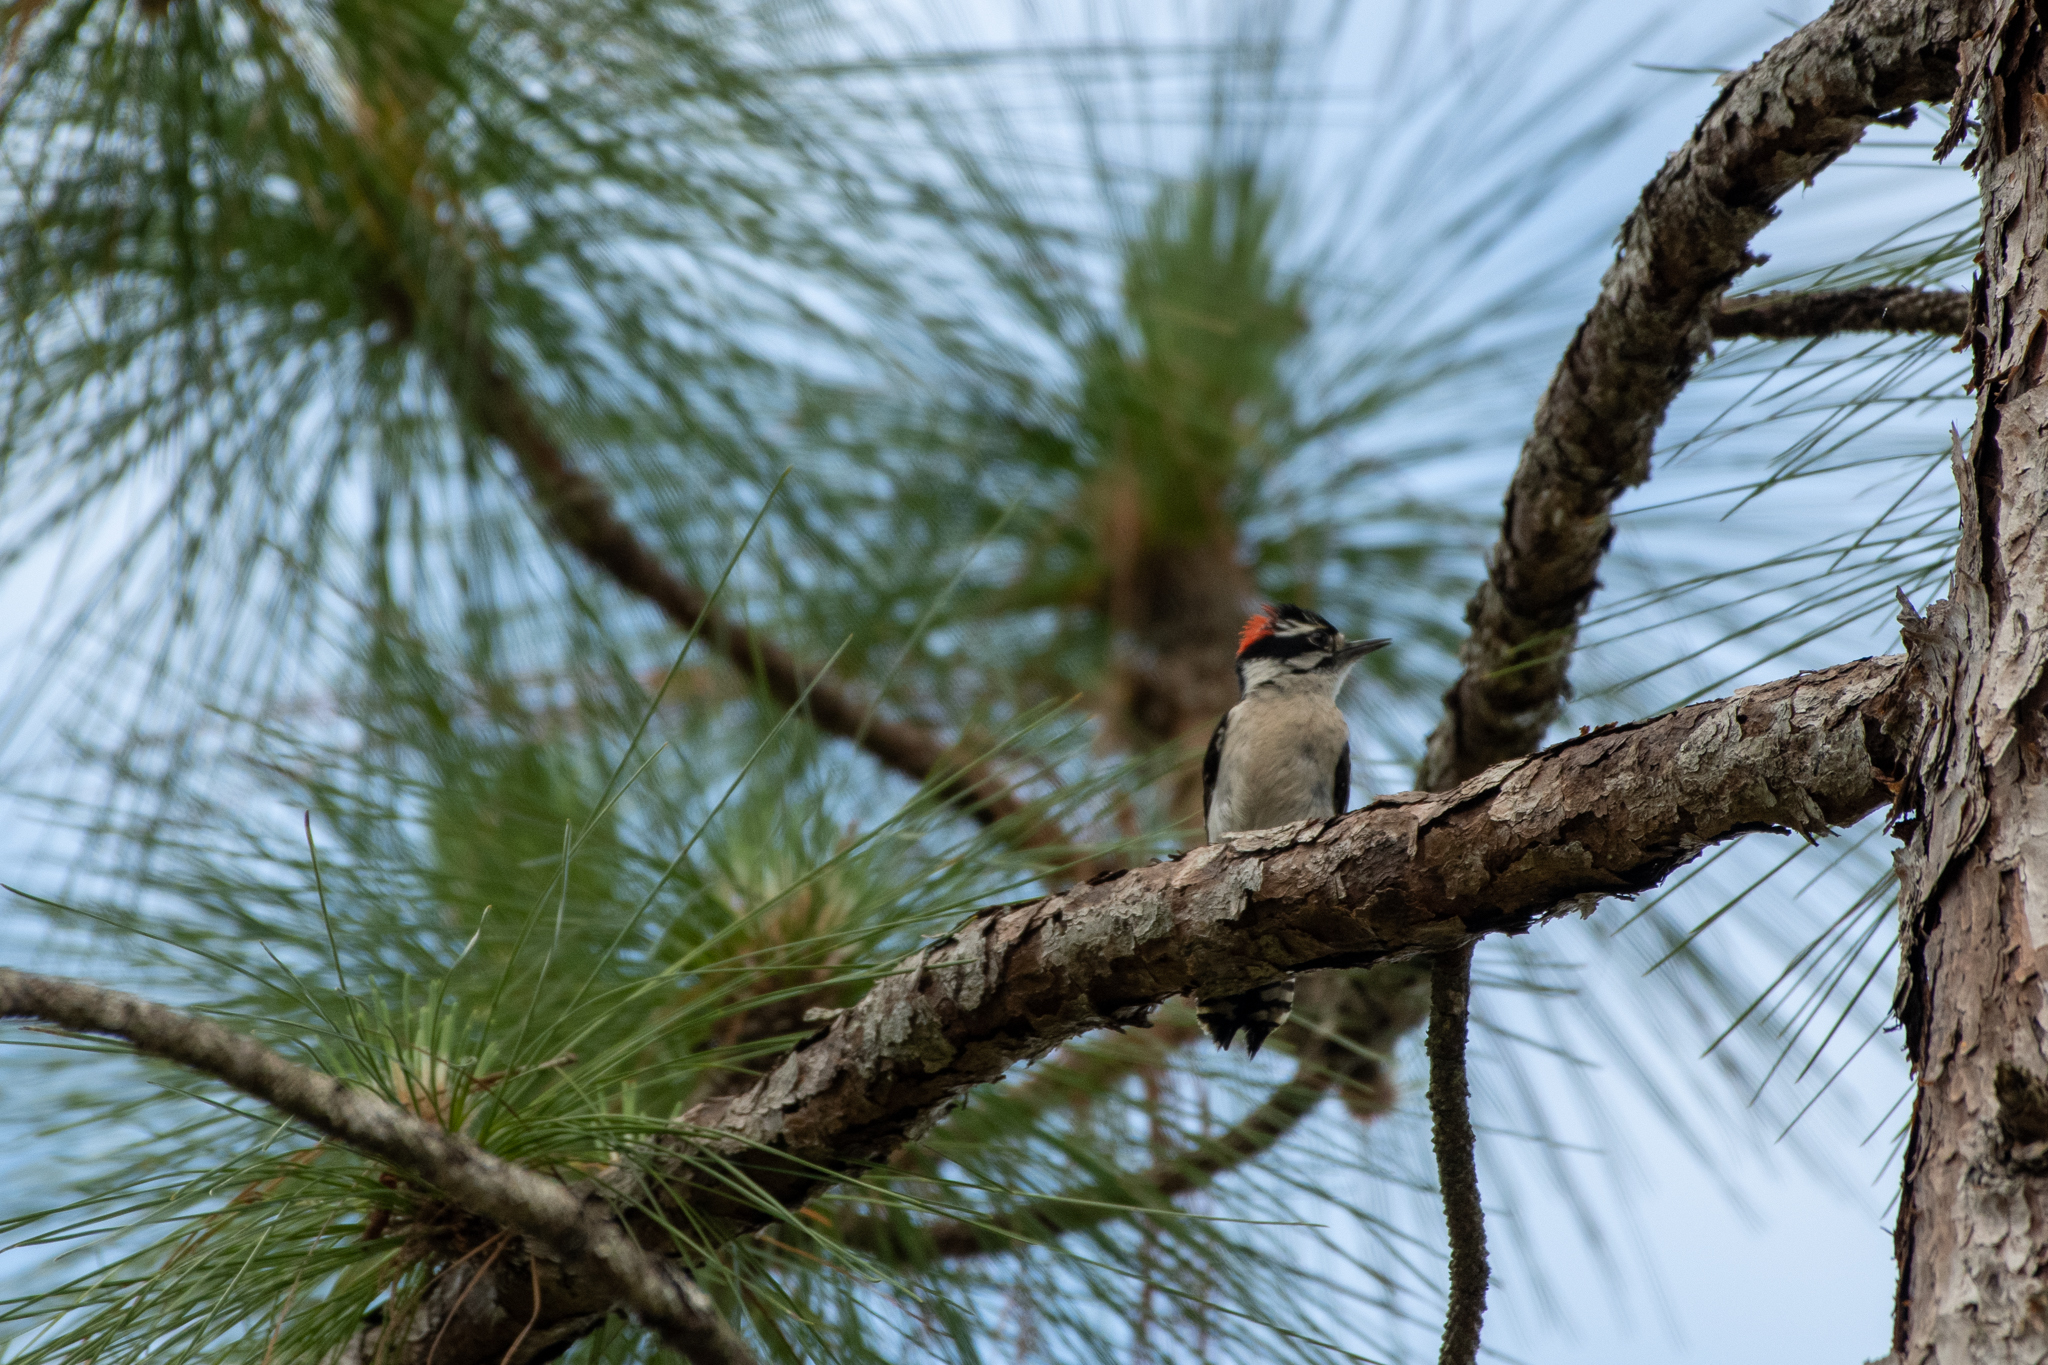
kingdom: Animalia
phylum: Chordata
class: Aves
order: Piciformes
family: Picidae
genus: Dryobates
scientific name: Dryobates pubescens
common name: Downy woodpecker
